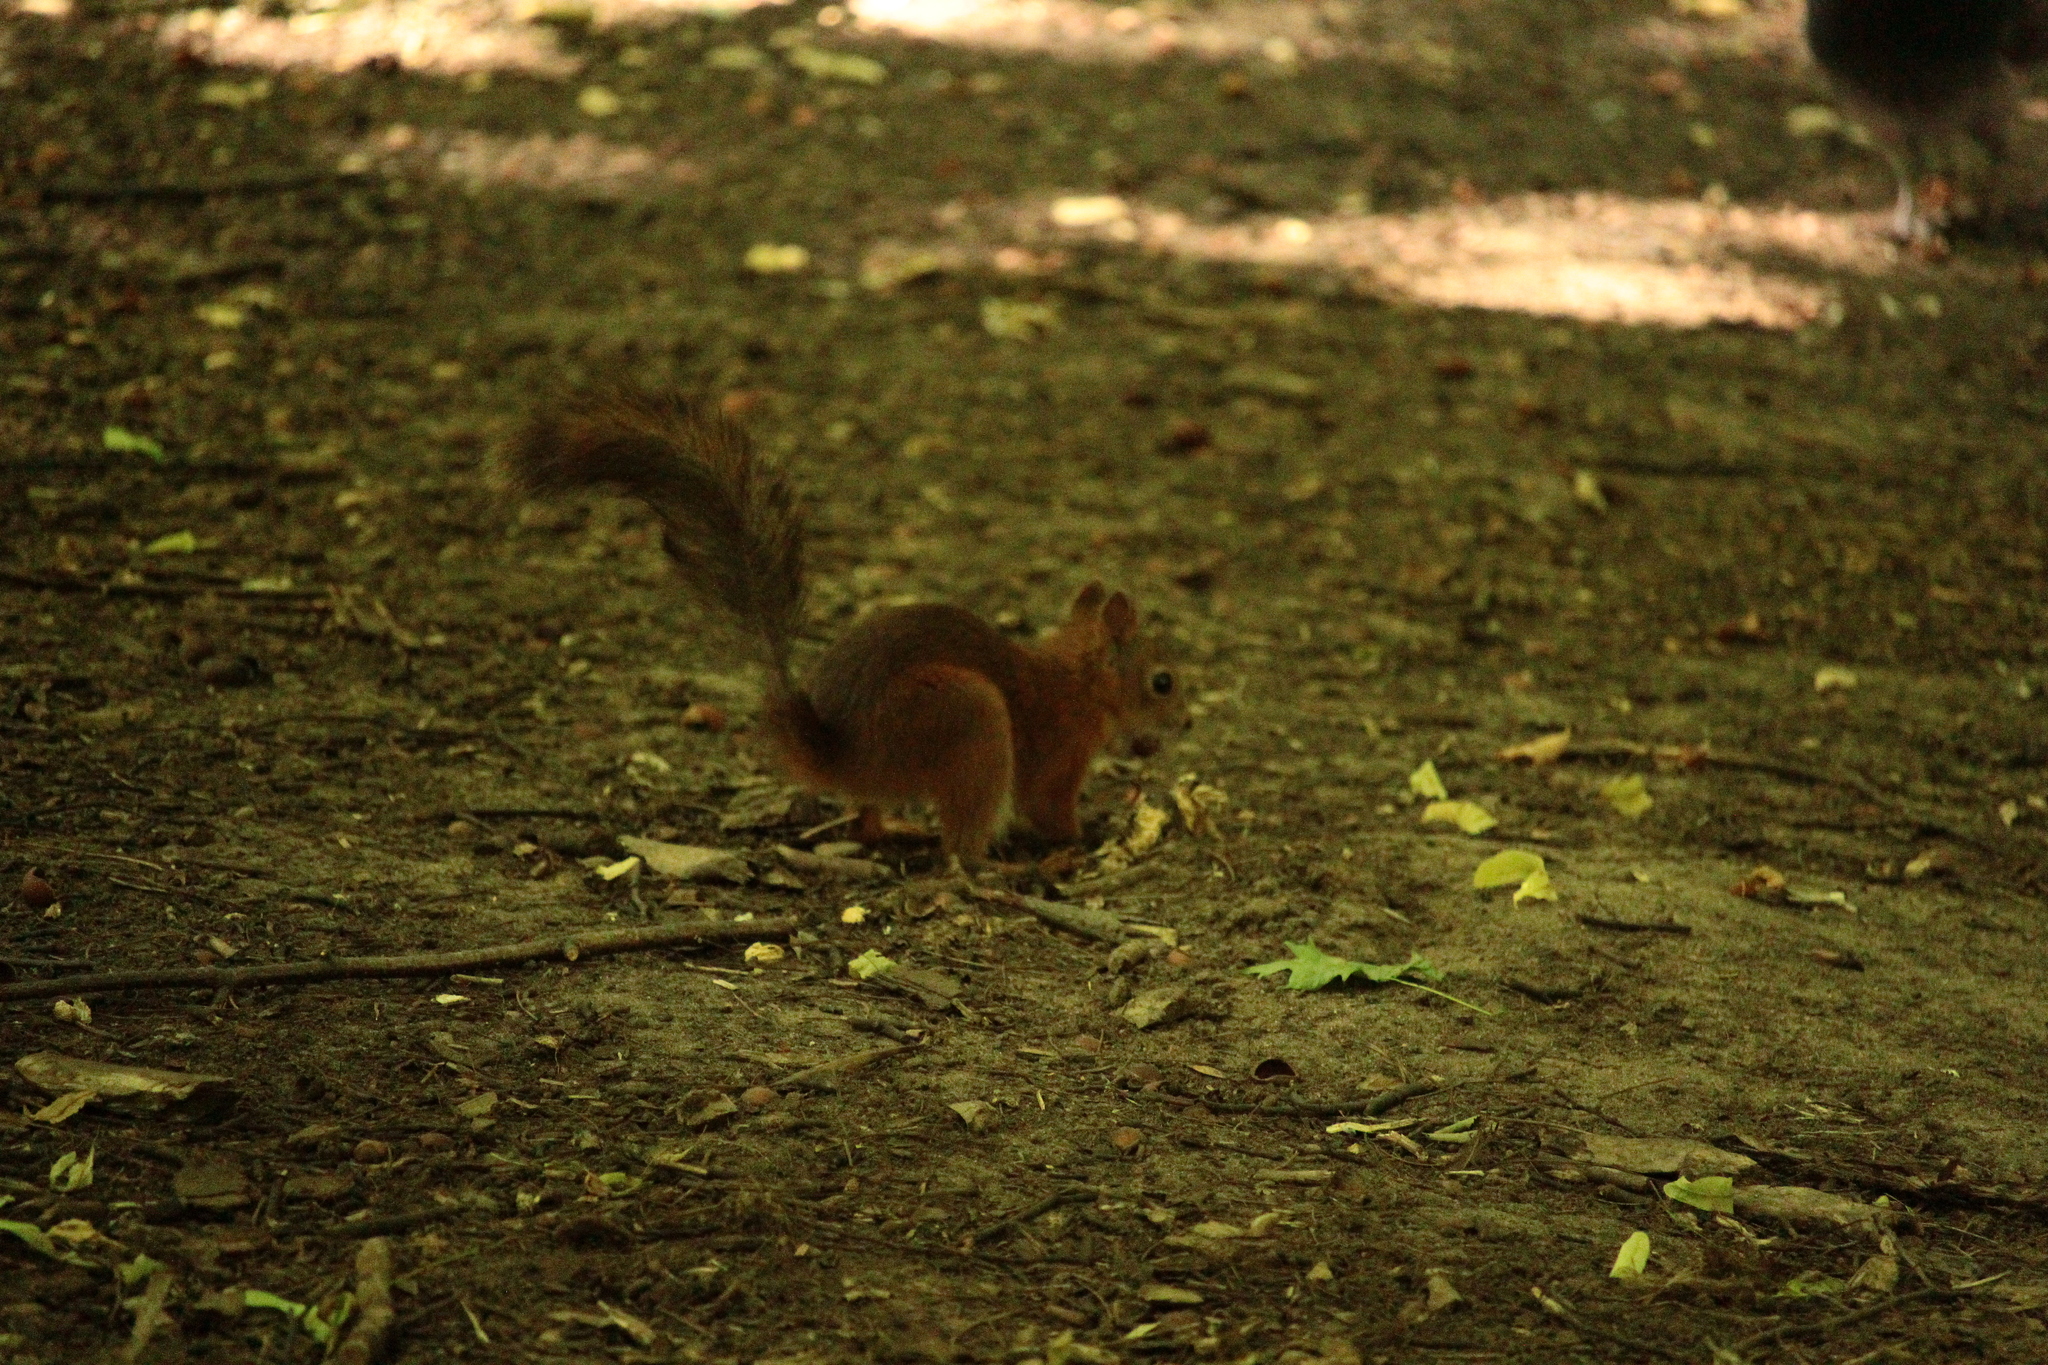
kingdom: Animalia
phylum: Chordata
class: Mammalia
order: Rodentia
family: Sciuridae
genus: Sciurus
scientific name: Sciurus vulgaris
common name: Eurasian red squirrel
